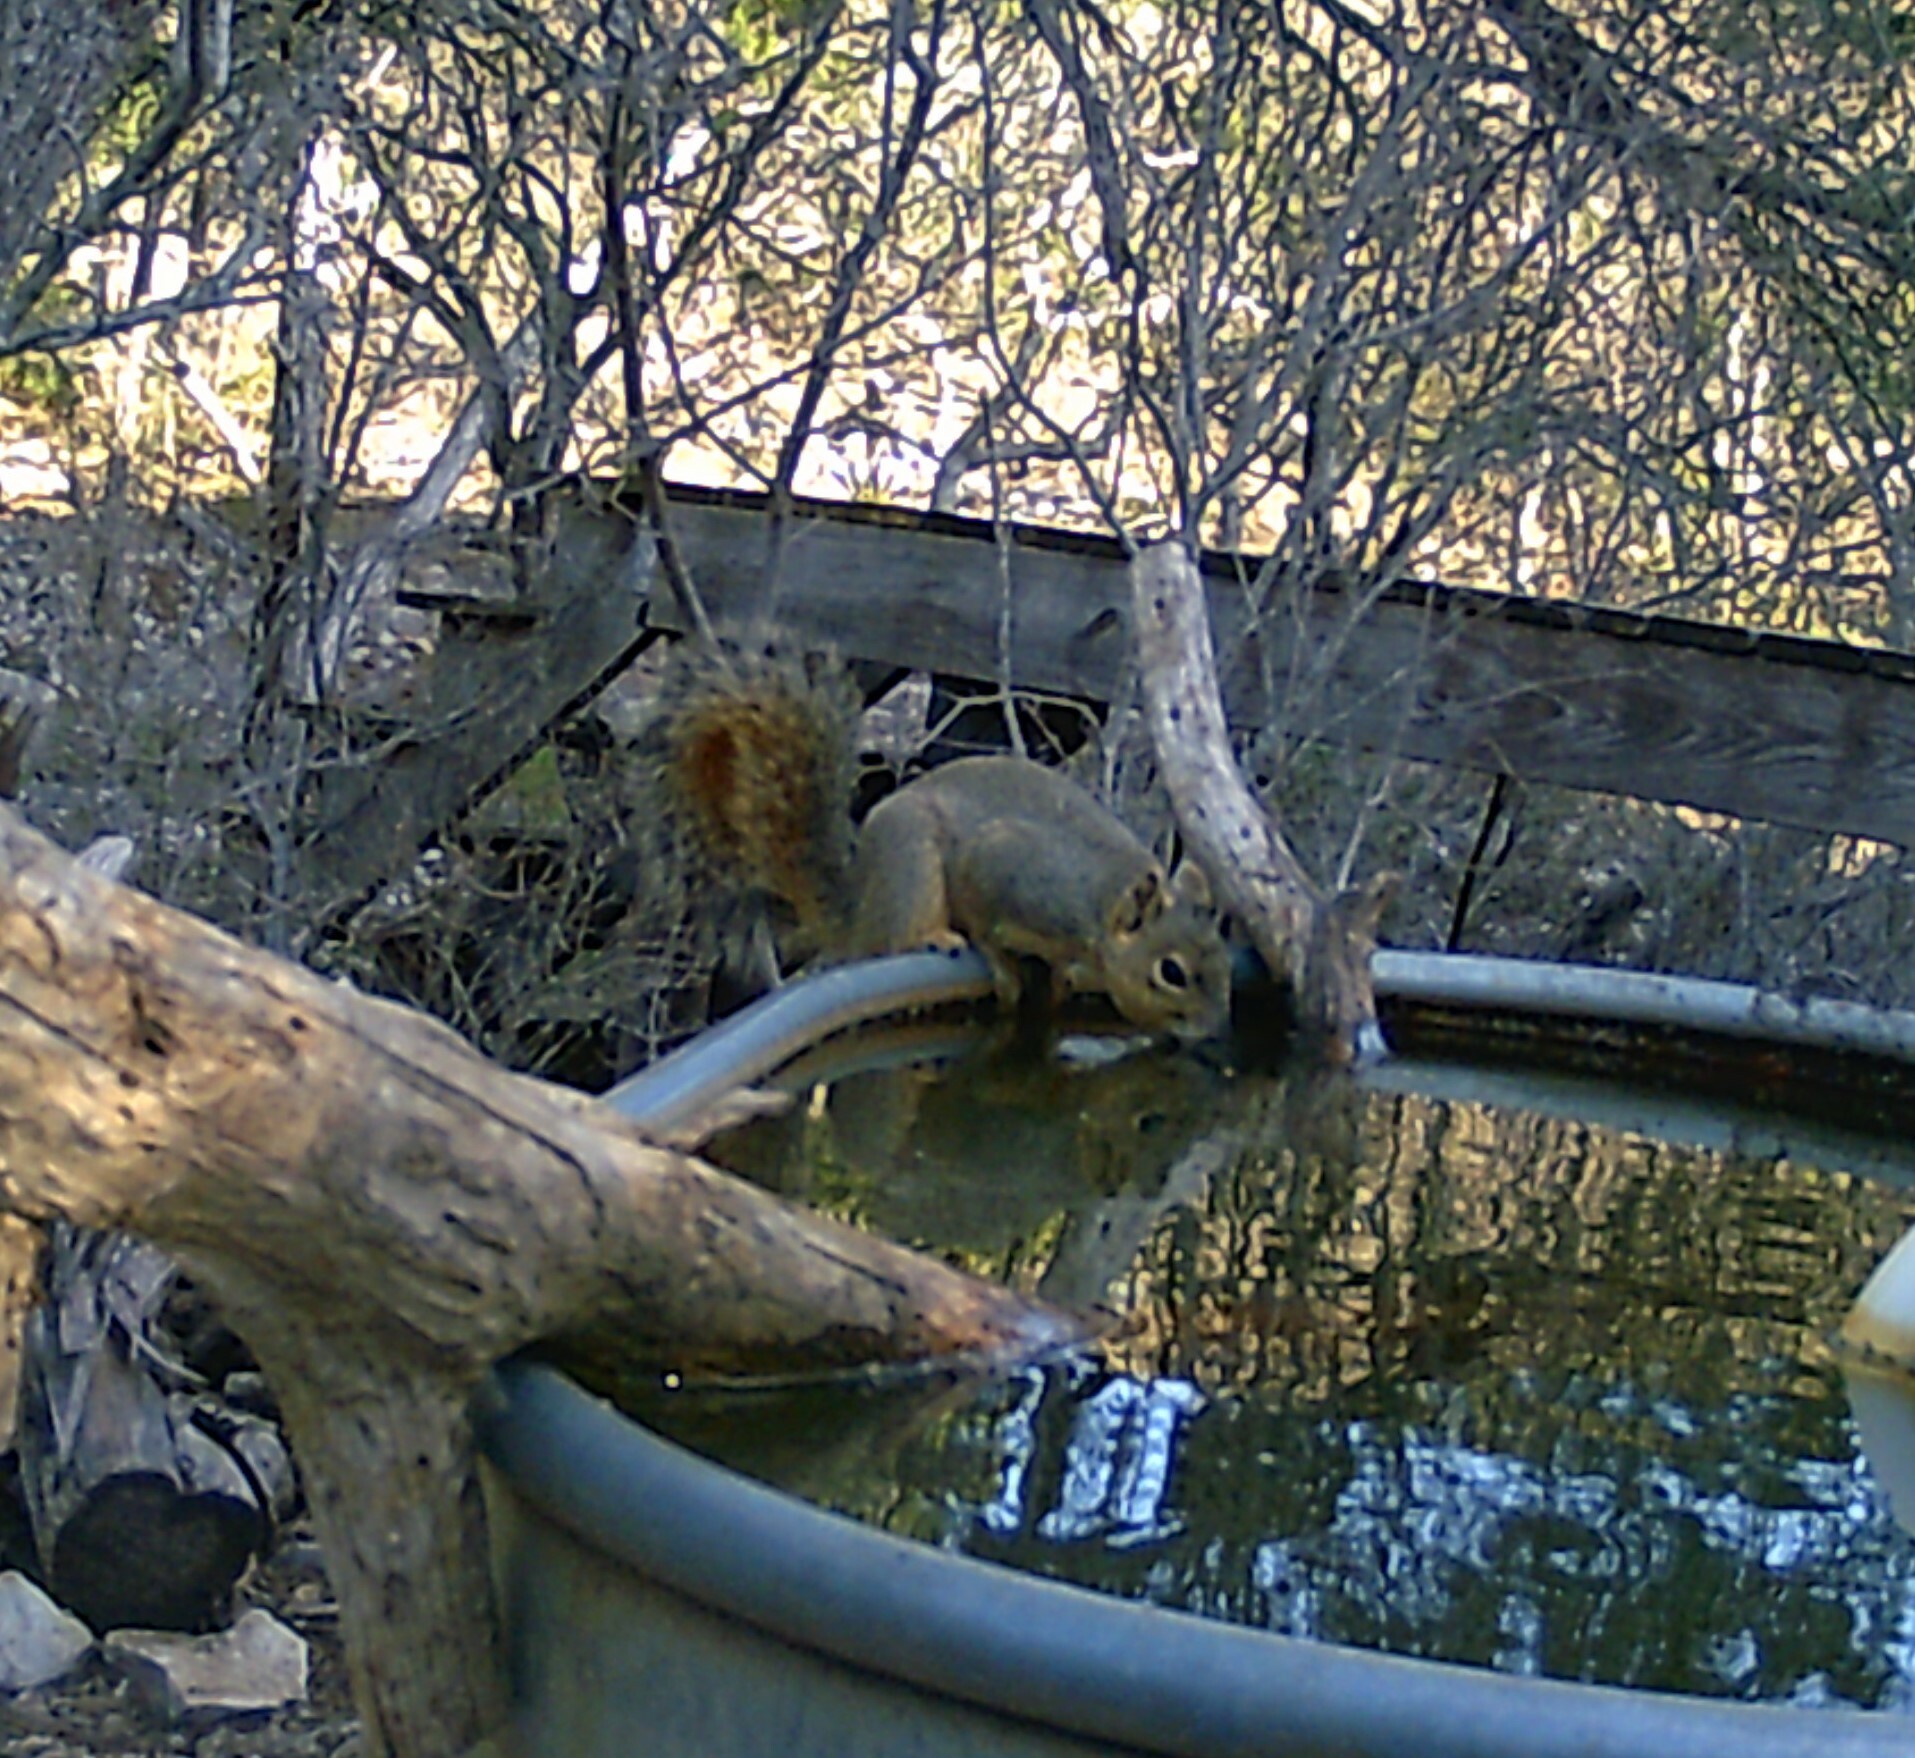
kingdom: Animalia
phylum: Chordata
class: Mammalia
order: Rodentia
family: Sciuridae
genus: Sciurus
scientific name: Sciurus niger
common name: Fox squirrel
